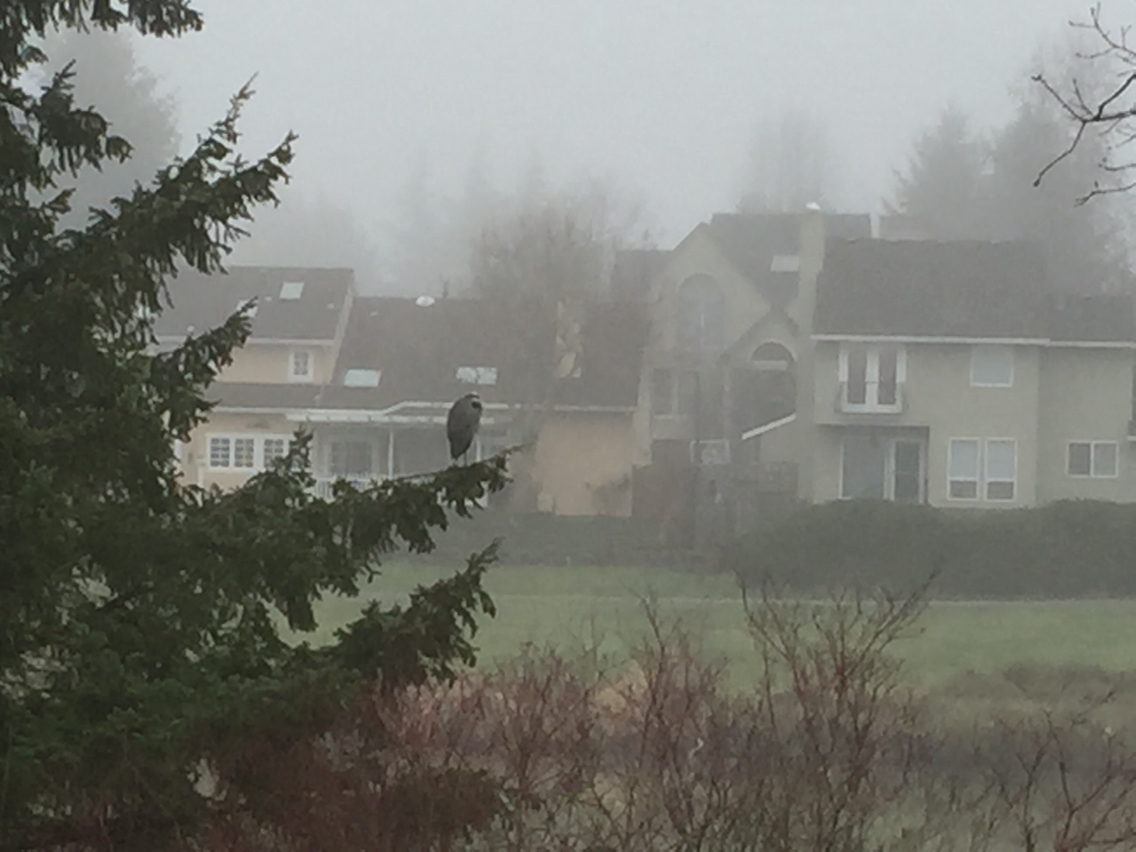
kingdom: Animalia
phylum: Chordata
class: Aves
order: Pelecaniformes
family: Ardeidae
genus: Ardea
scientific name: Ardea herodias
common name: Great blue heron
